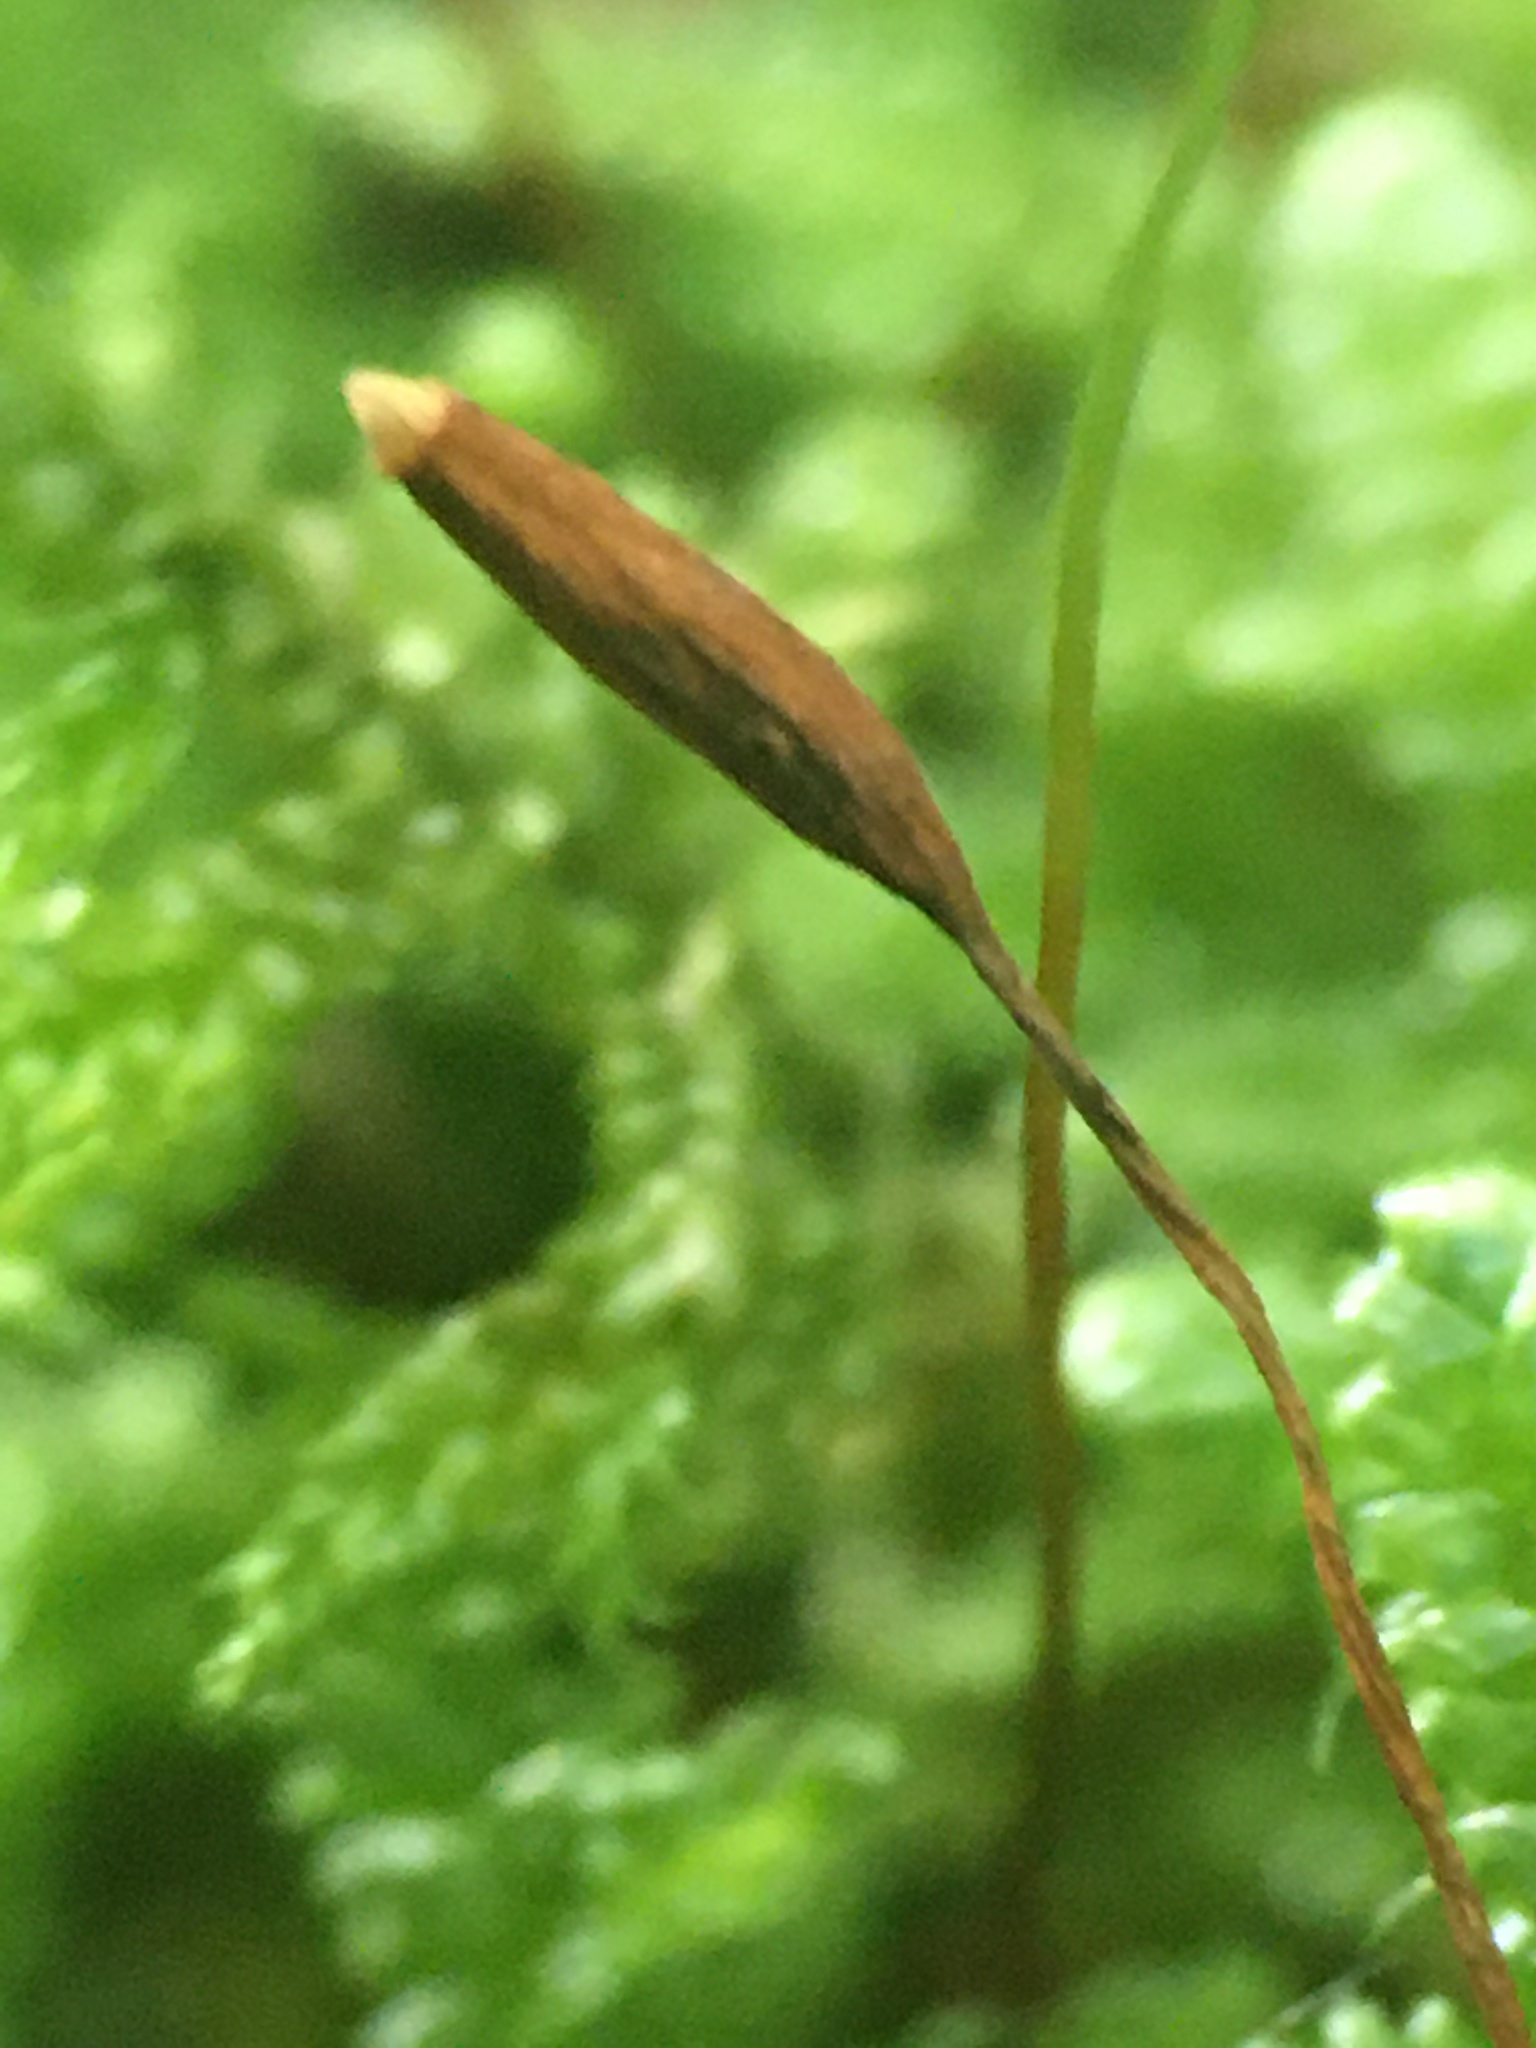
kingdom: Plantae
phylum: Bryophyta
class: Bryopsida
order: Hypnales
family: Callicladiaceae
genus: Callicladium
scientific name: Callicladium imponens
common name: Brocade moss
